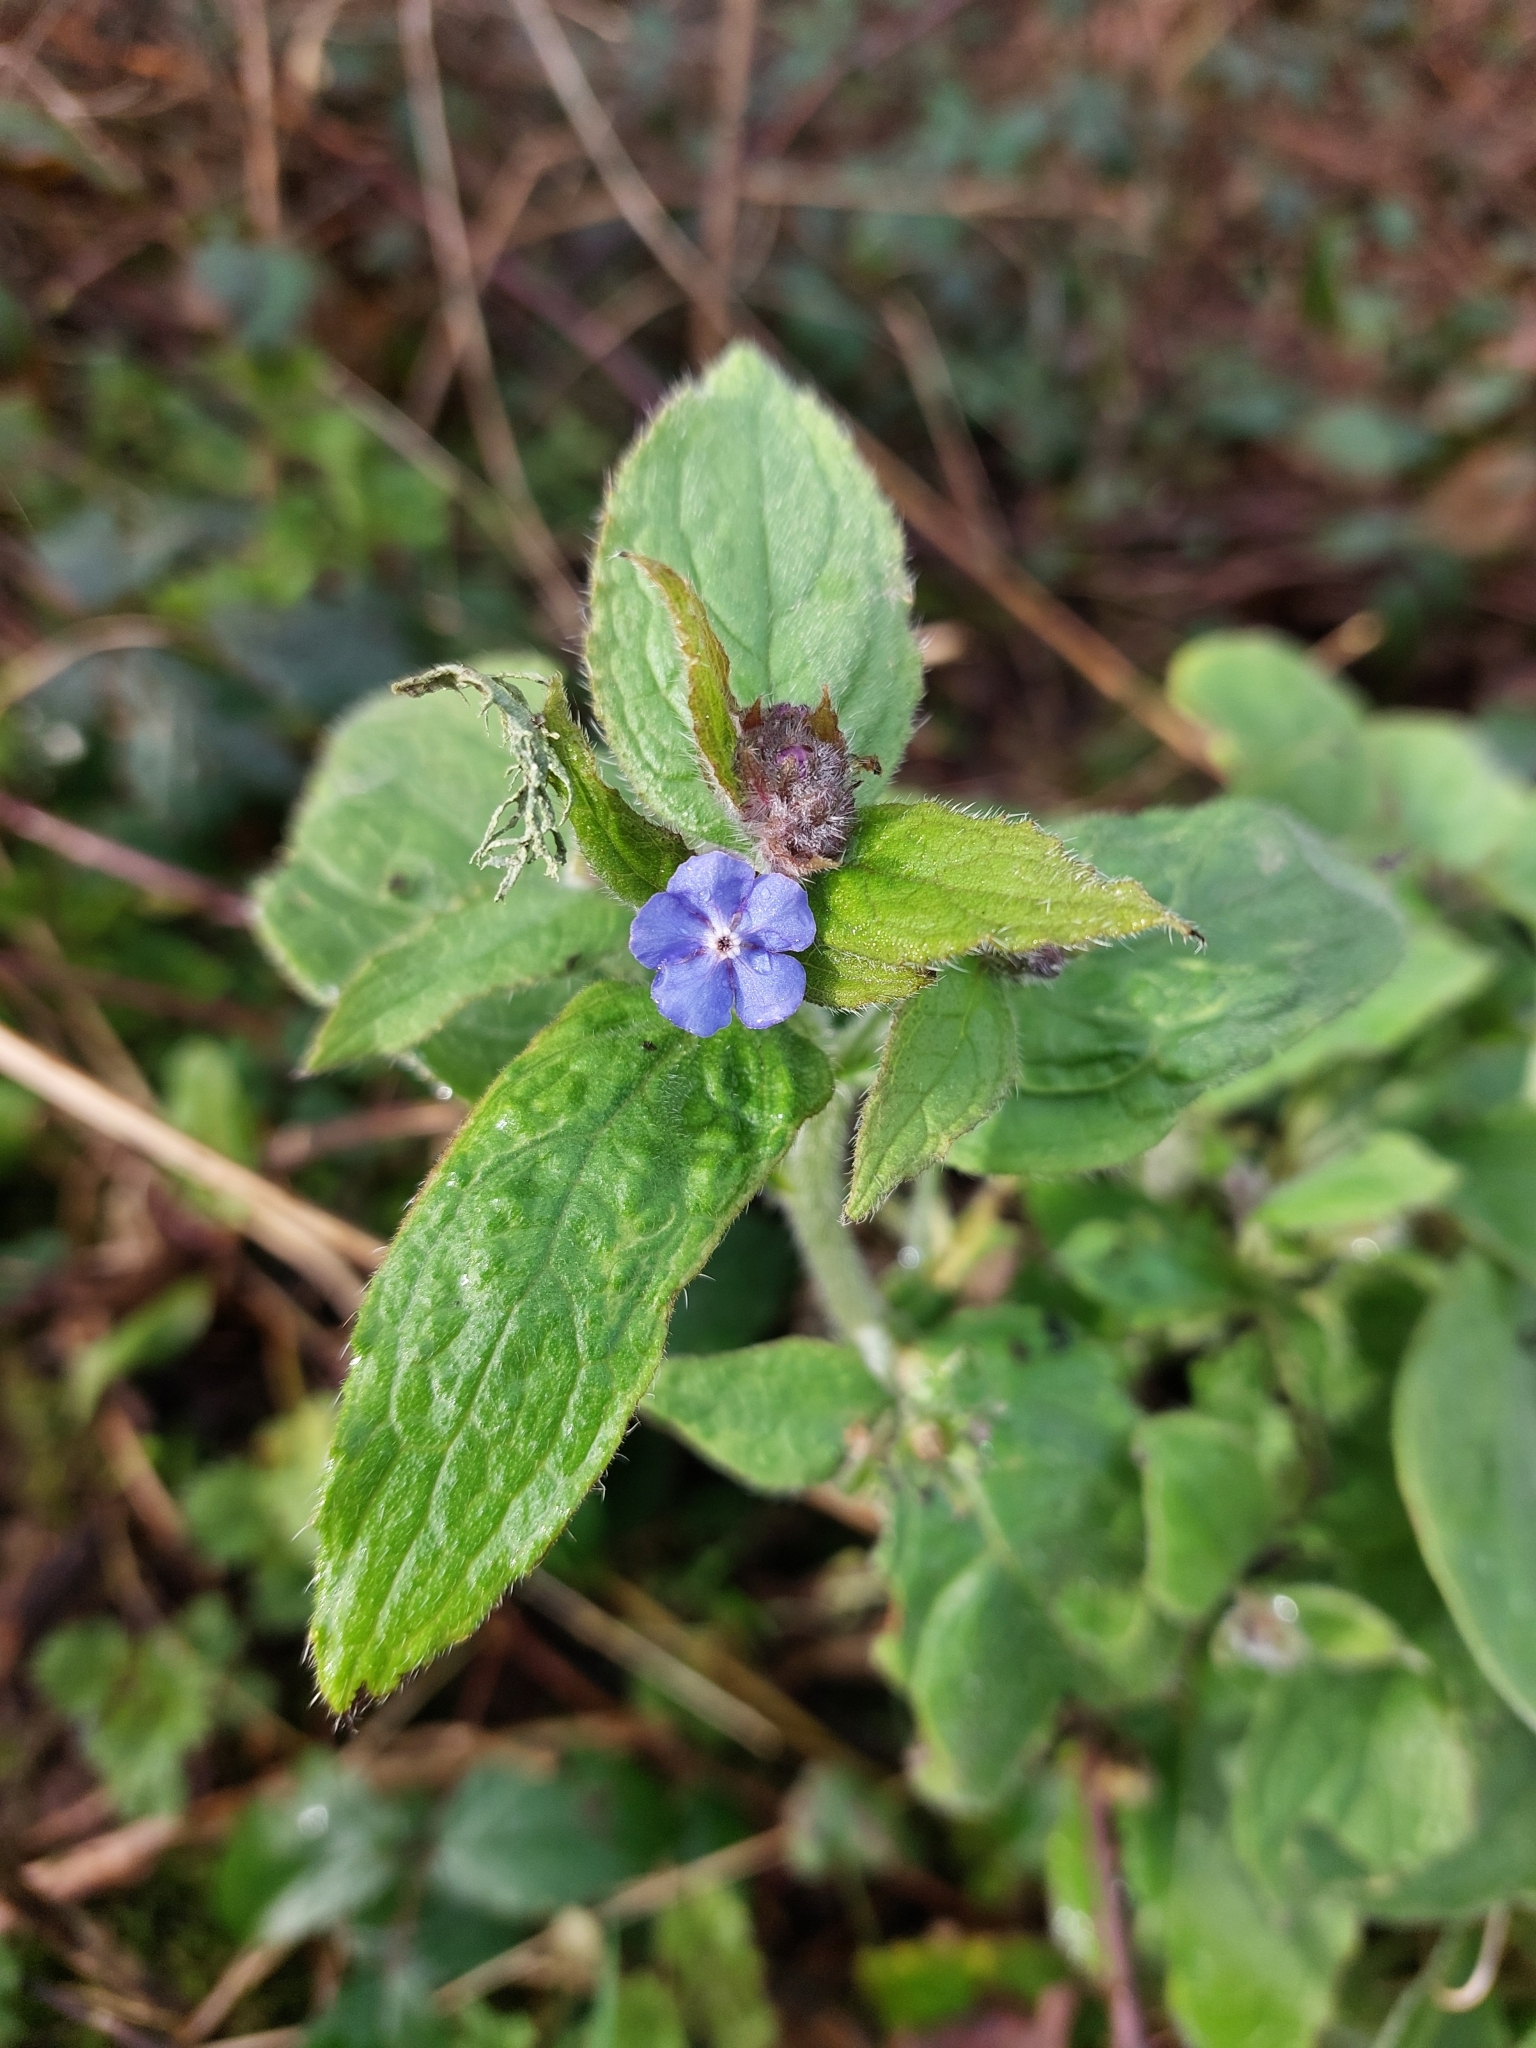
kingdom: Plantae
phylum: Tracheophyta
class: Magnoliopsida
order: Boraginales
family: Boraginaceae
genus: Pentaglottis
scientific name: Pentaglottis sempervirens
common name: Green alkanet
